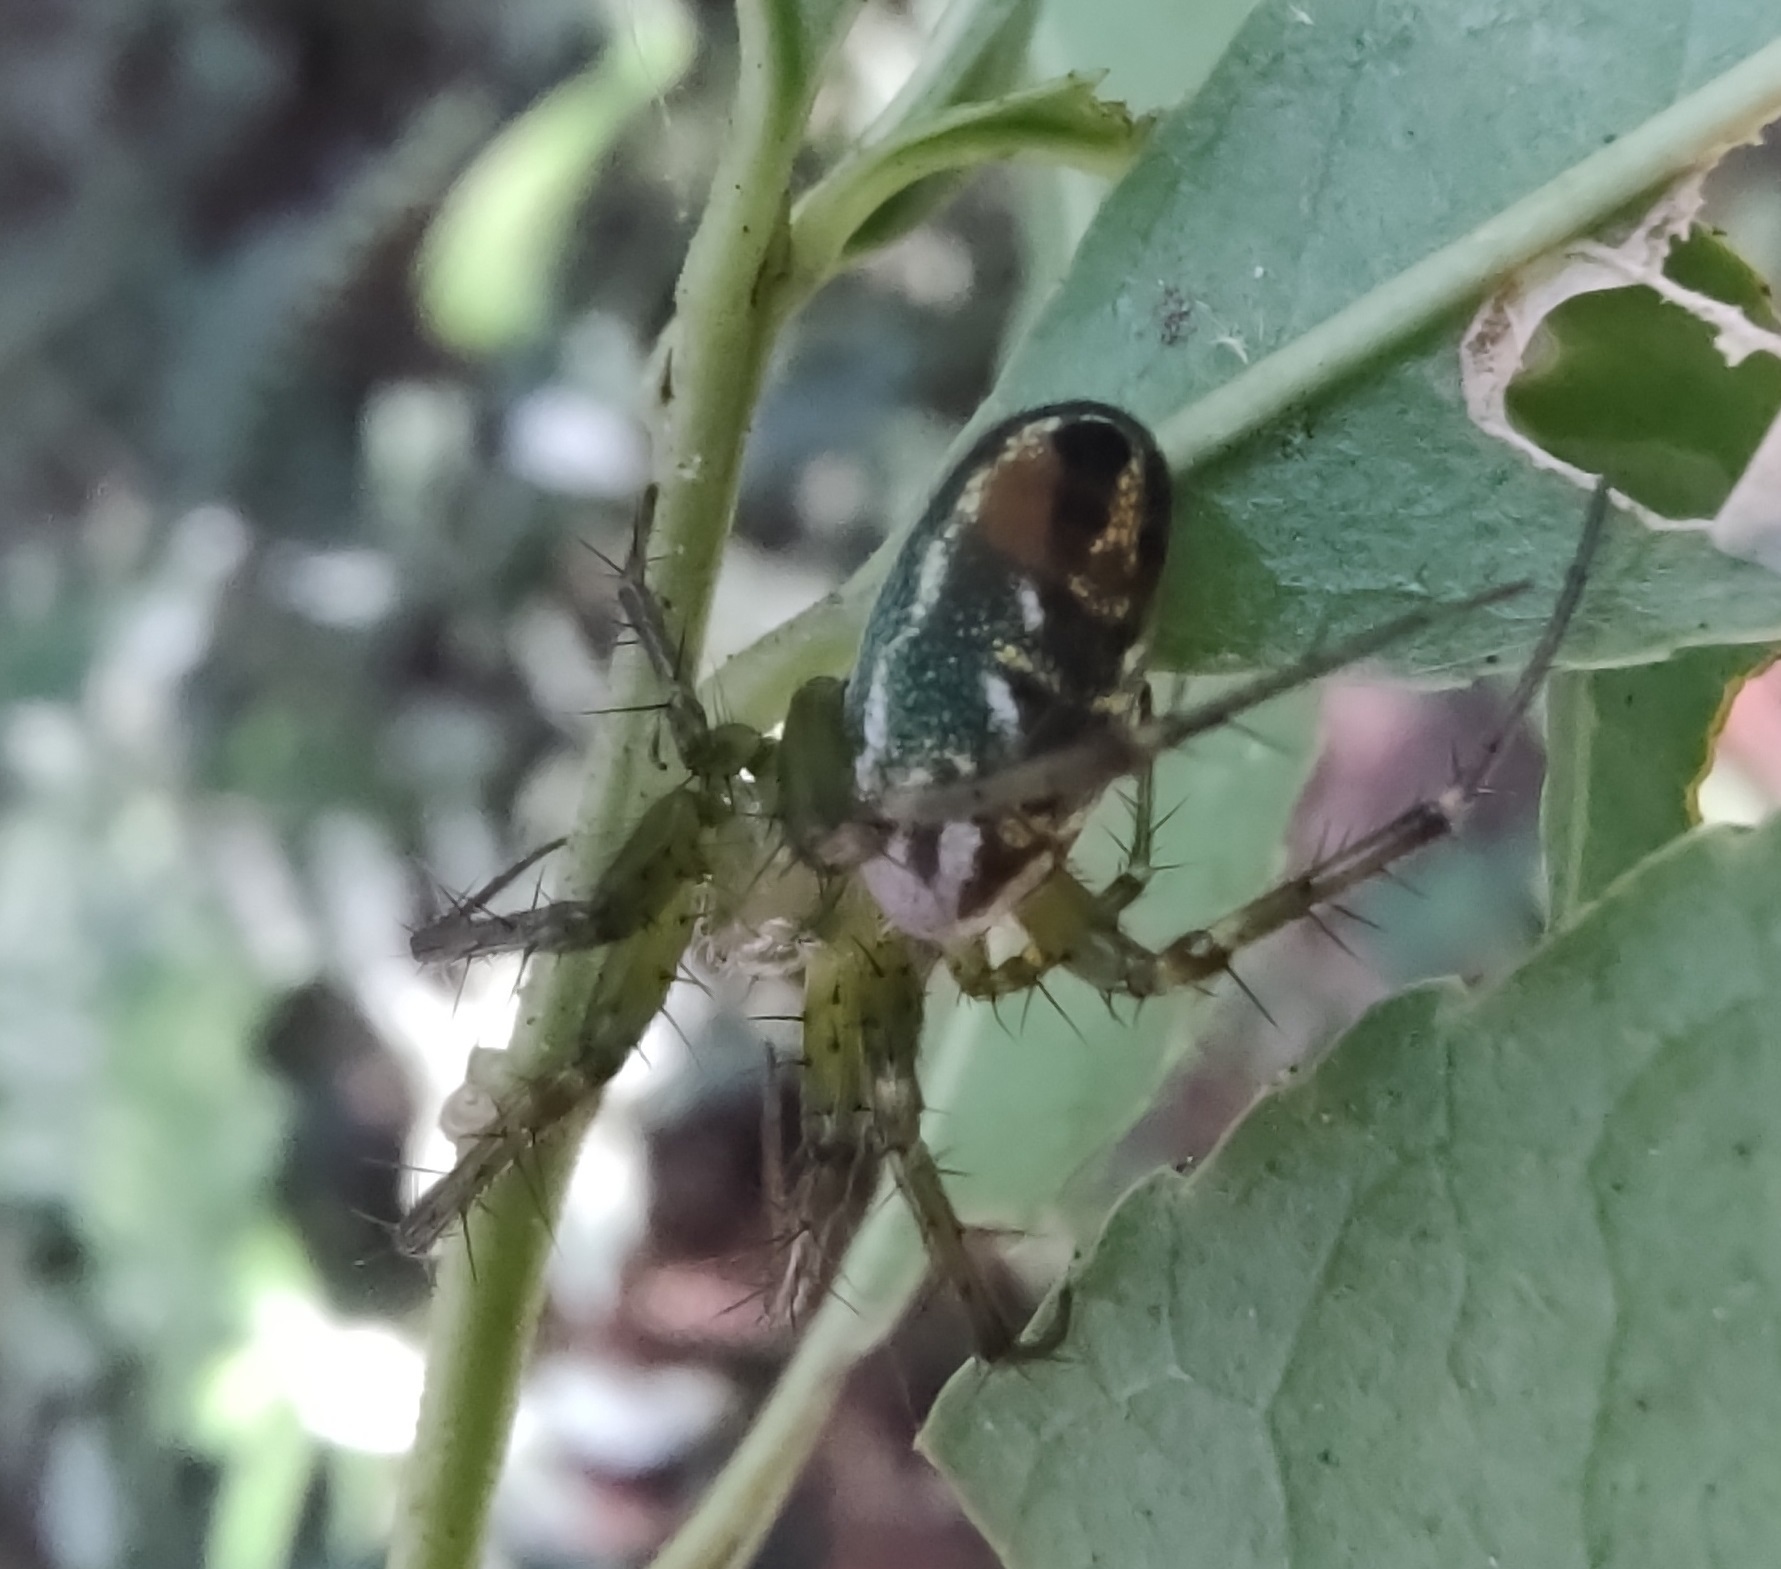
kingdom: Animalia
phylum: Arthropoda
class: Arachnida
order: Araneae
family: Araneidae
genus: Mangora
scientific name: Mangora strenua
